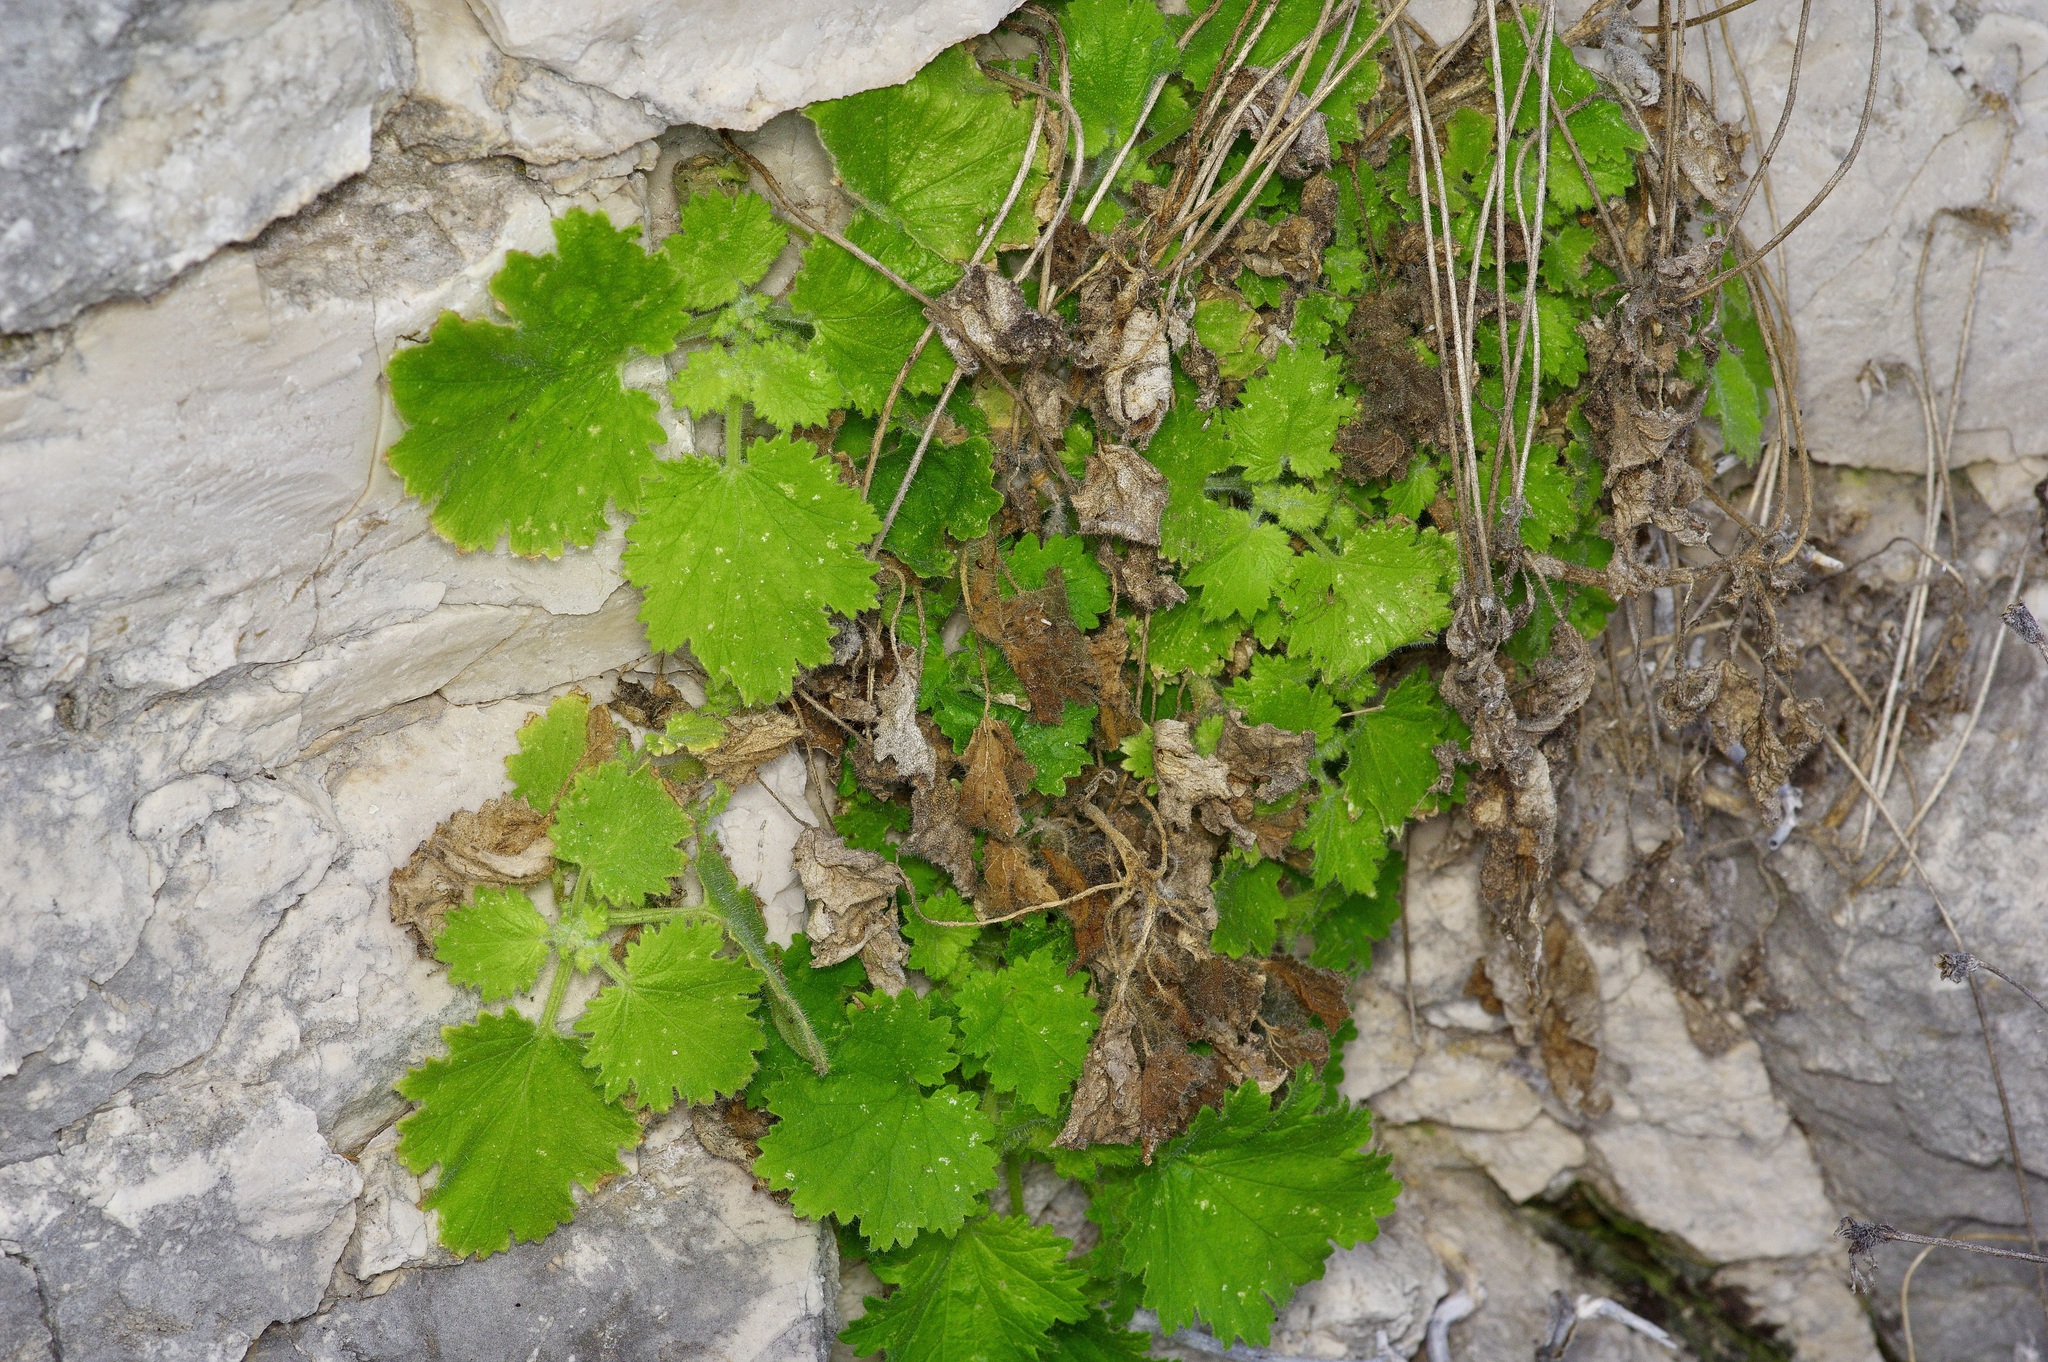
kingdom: Plantae
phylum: Tracheophyta
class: Magnoliopsida
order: Cornales
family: Loasaceae
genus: Eucnide
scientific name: Eucnide bartonioides
